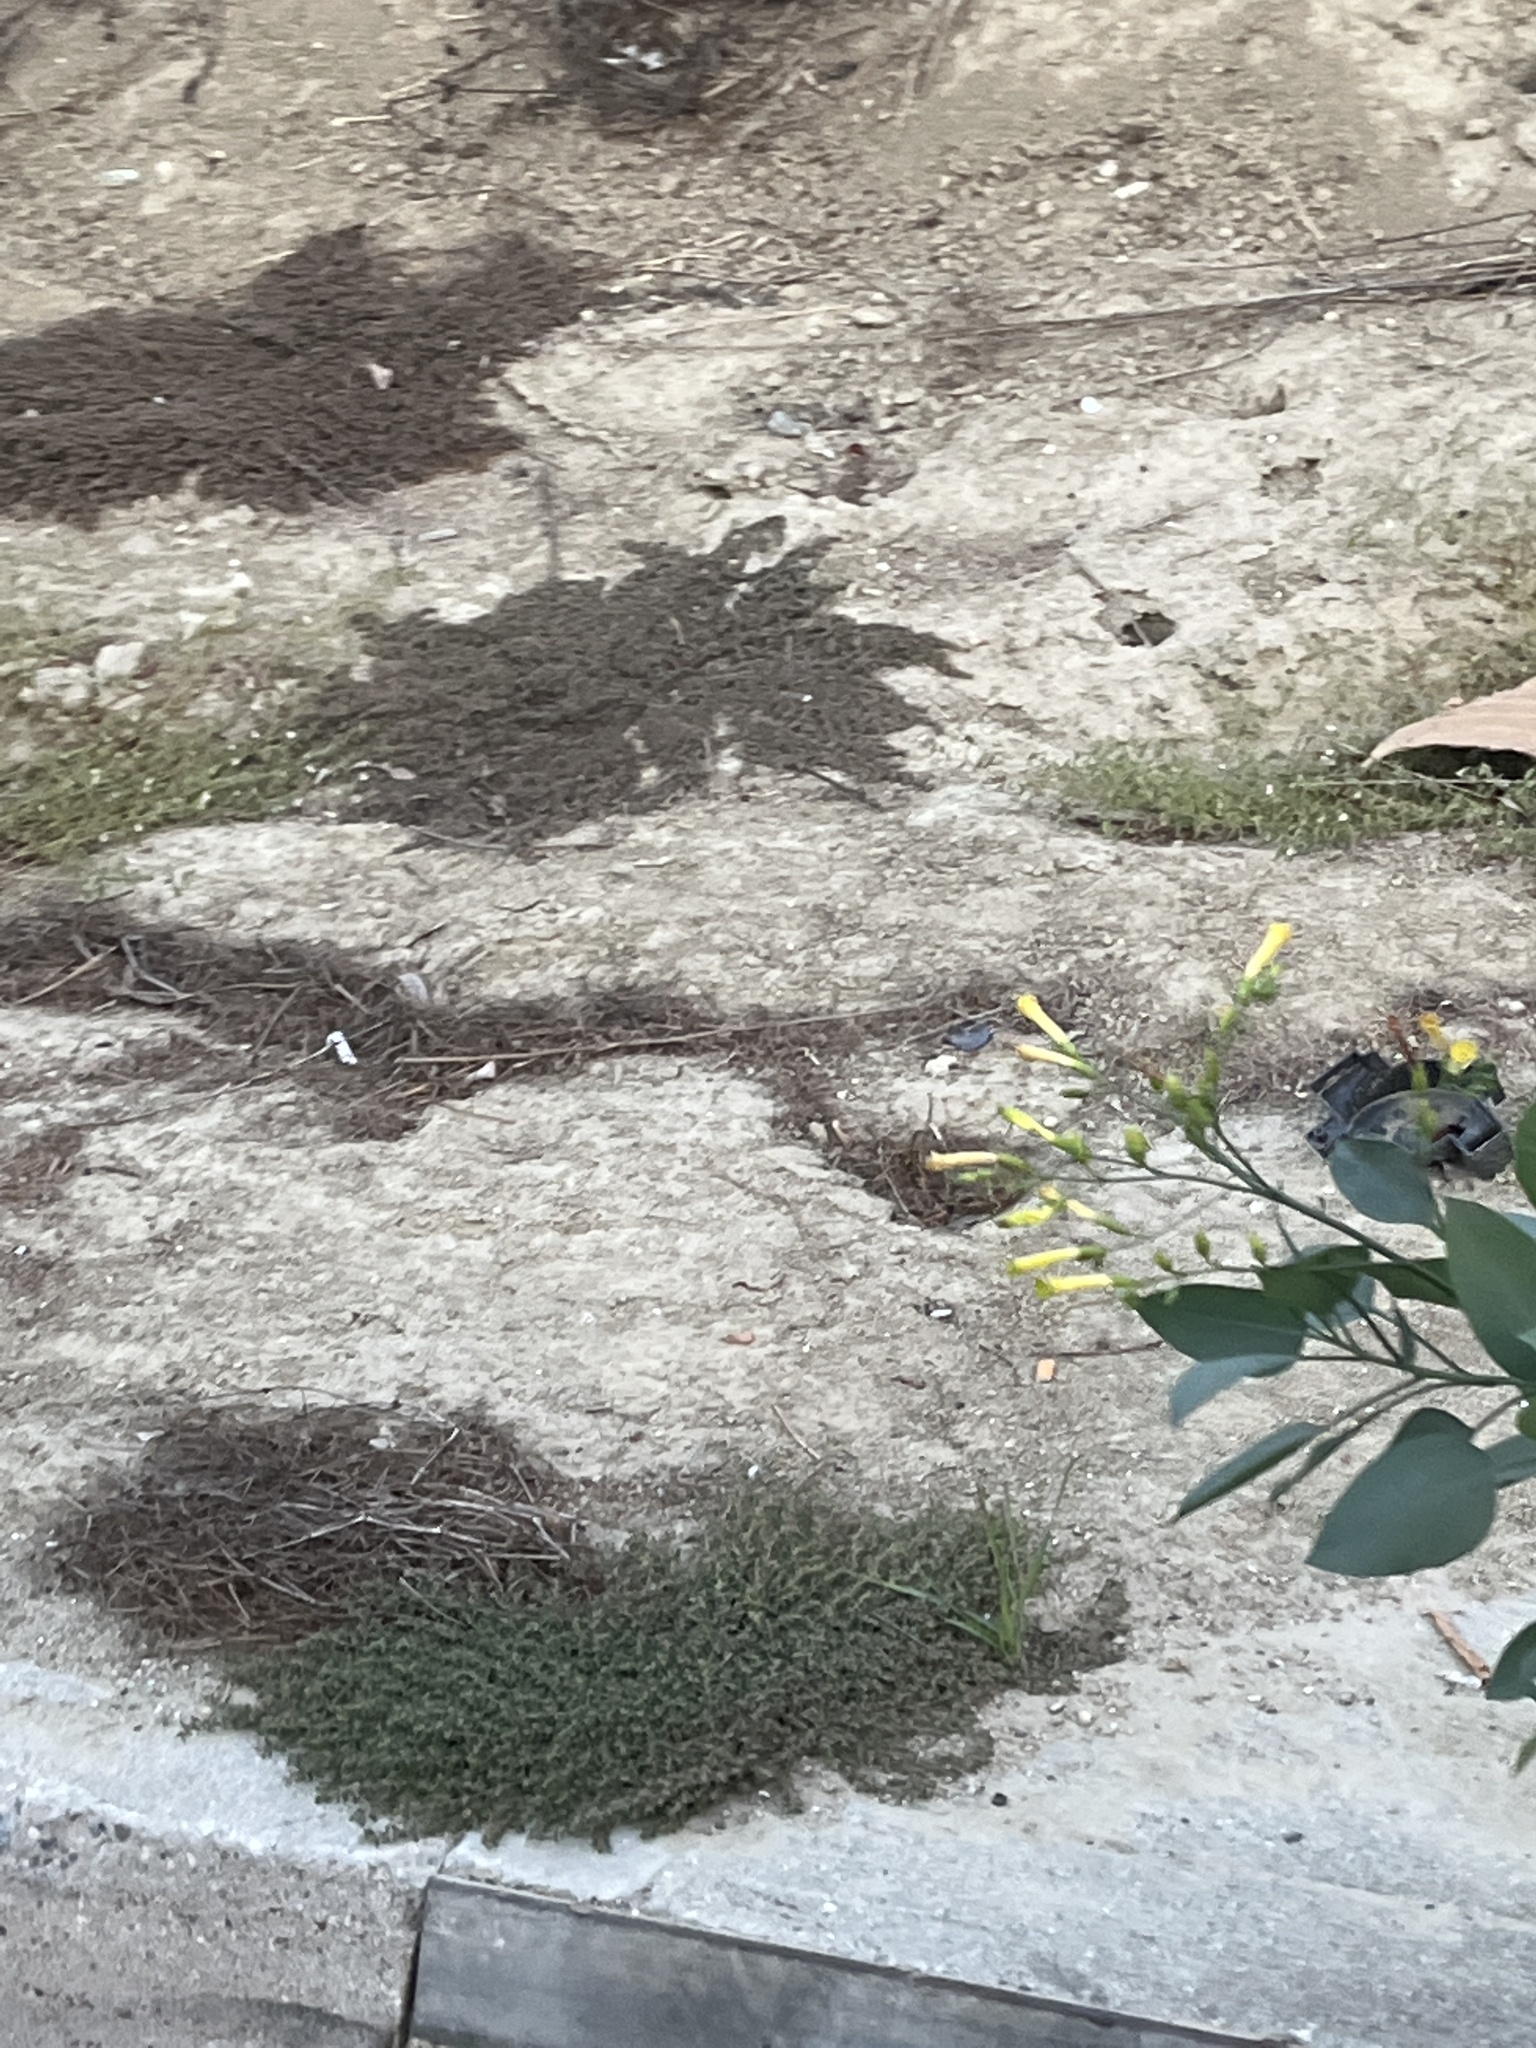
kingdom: Plantae
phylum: Tracheophyta
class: Magnoliopsida
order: Solanales
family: Solanaceae
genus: Nicotiana
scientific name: Nicotiana glauca
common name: Tree tobacco
